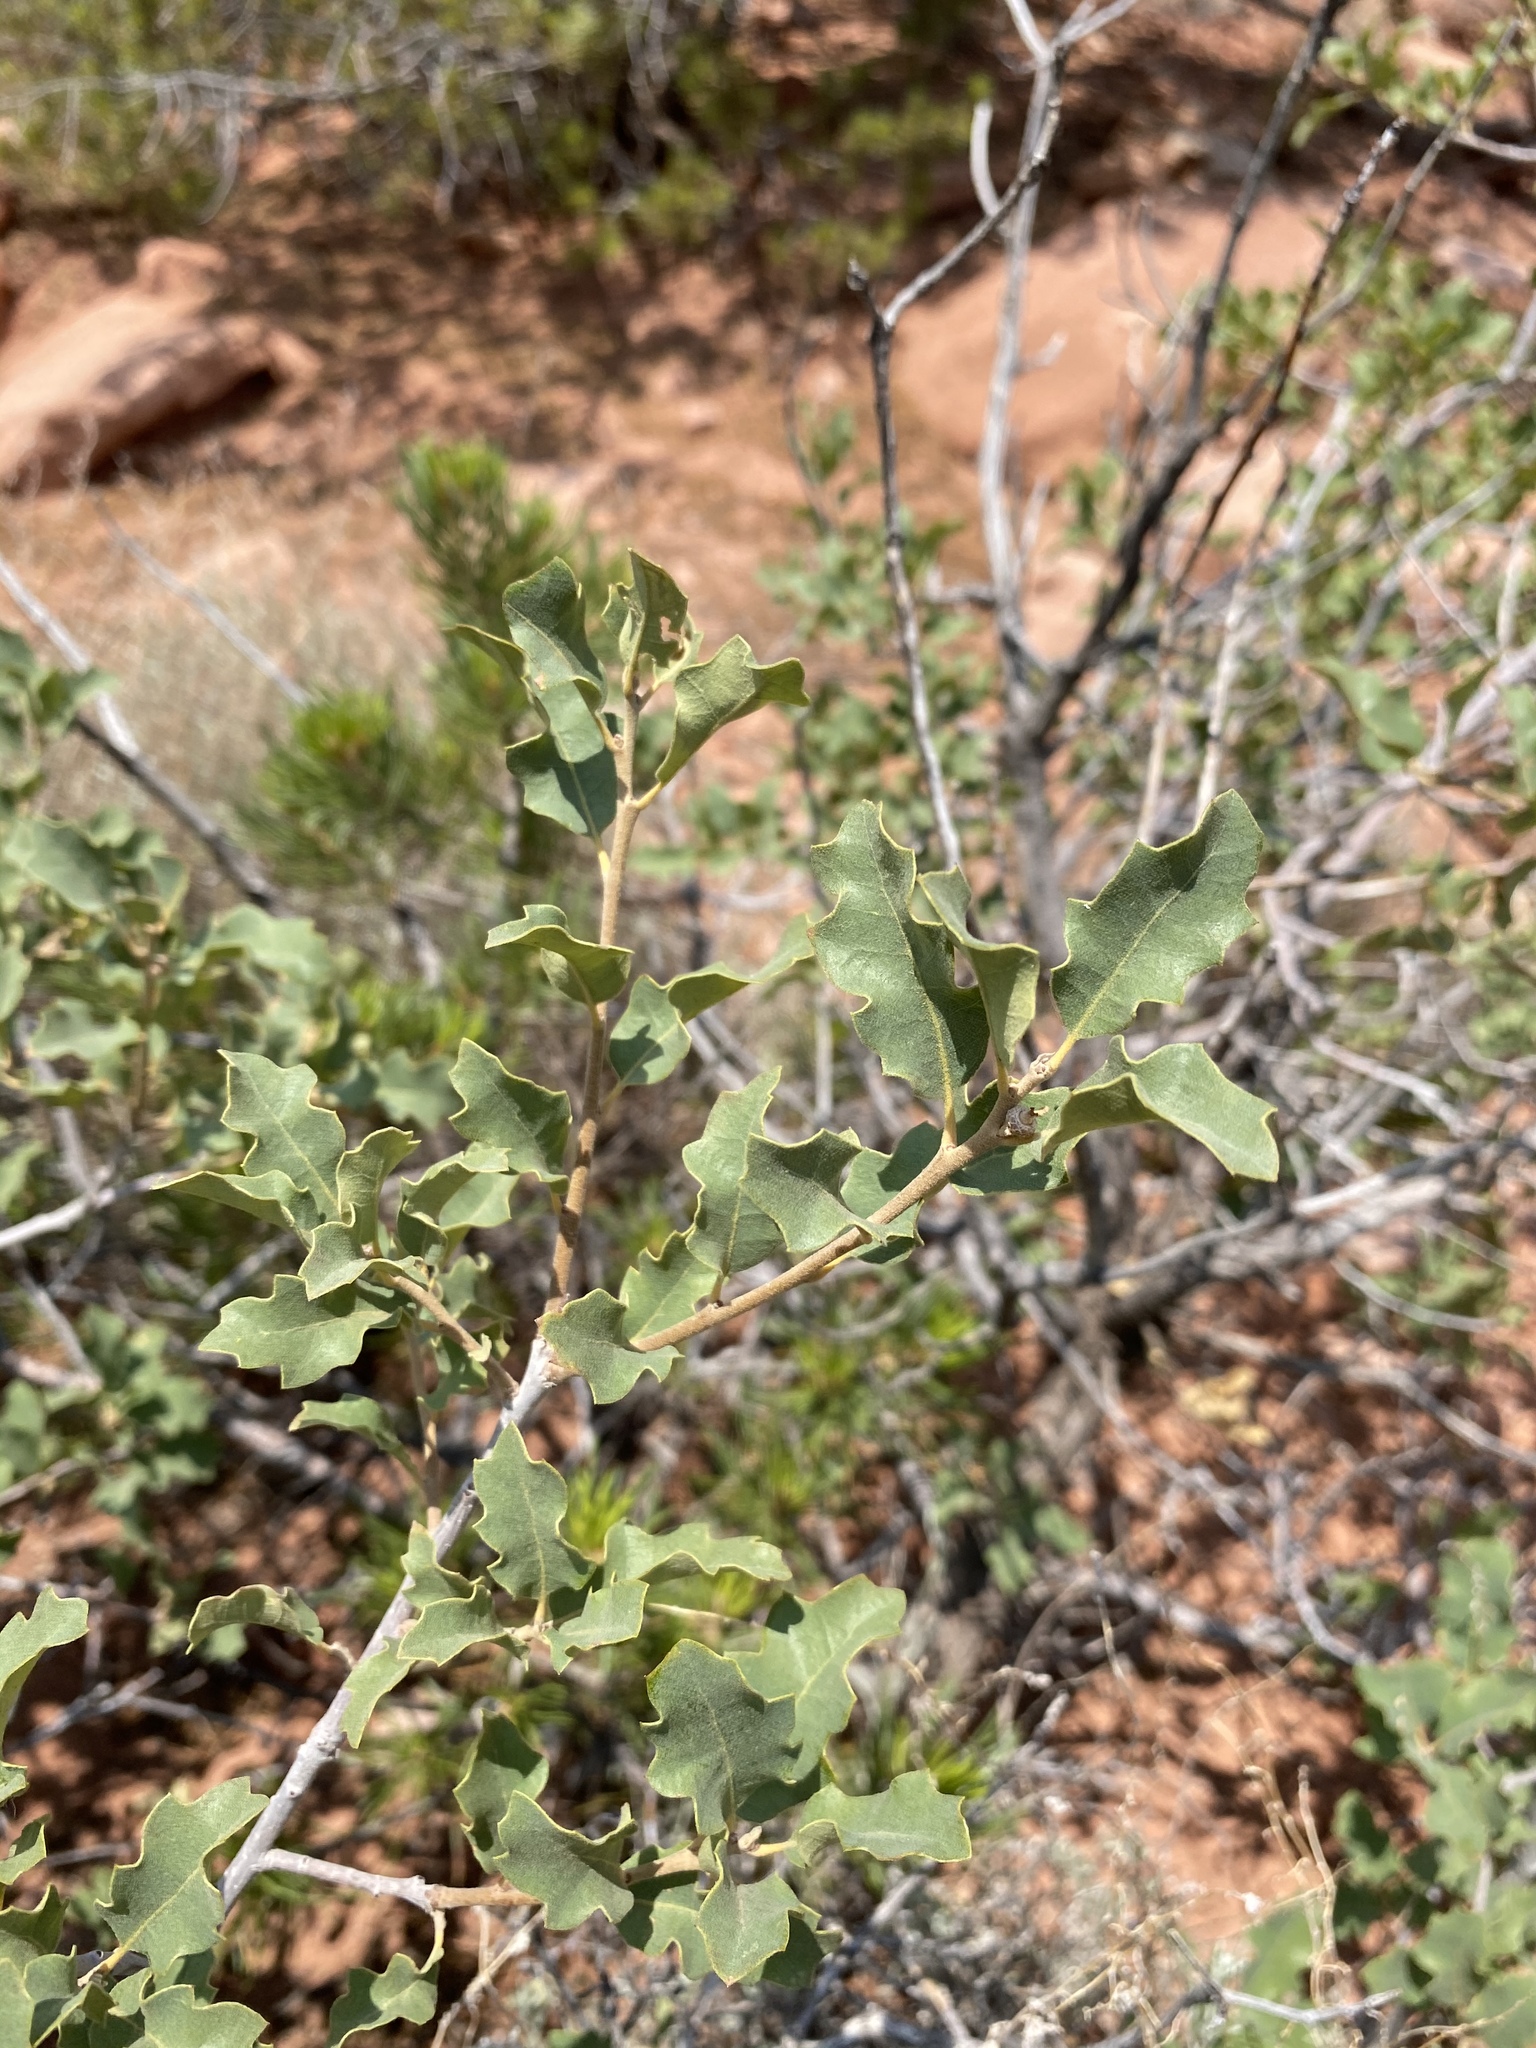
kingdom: Plantae
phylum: Tracheophyta
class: Magnoliopsida
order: Fagales
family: Fagaceae
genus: Quercus
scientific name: Quercus welshii
